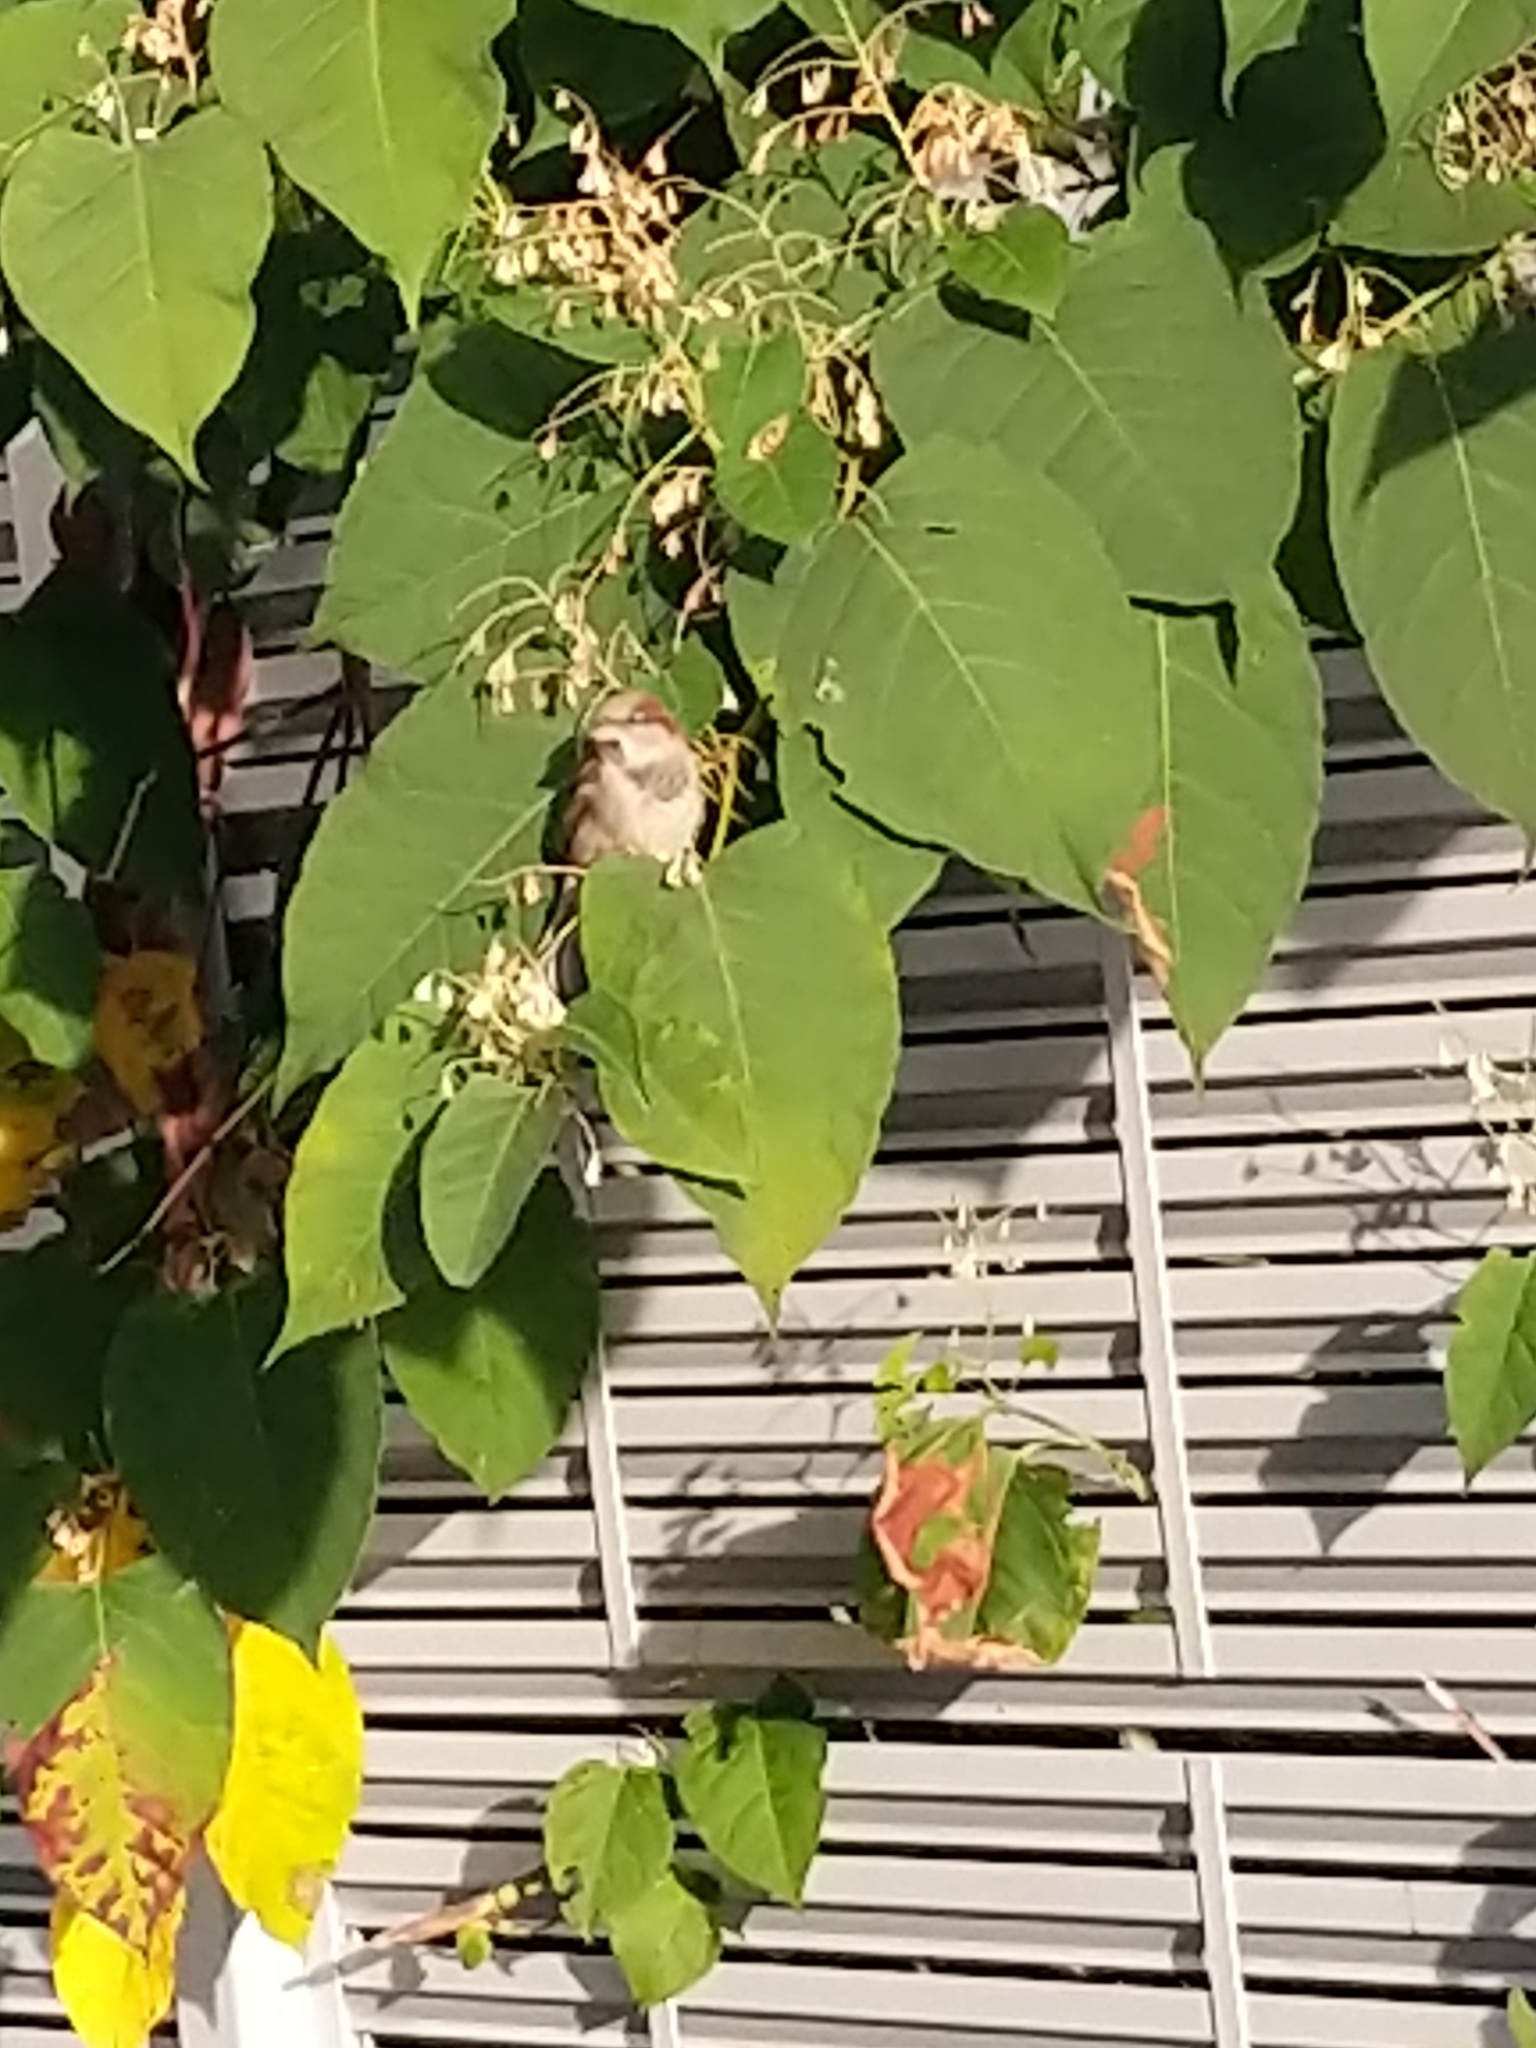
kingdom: Animalia
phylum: Chordata
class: Aves
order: Passeriformes
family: Passeridae
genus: Passer
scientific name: Passer domesticus
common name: House sparrow
